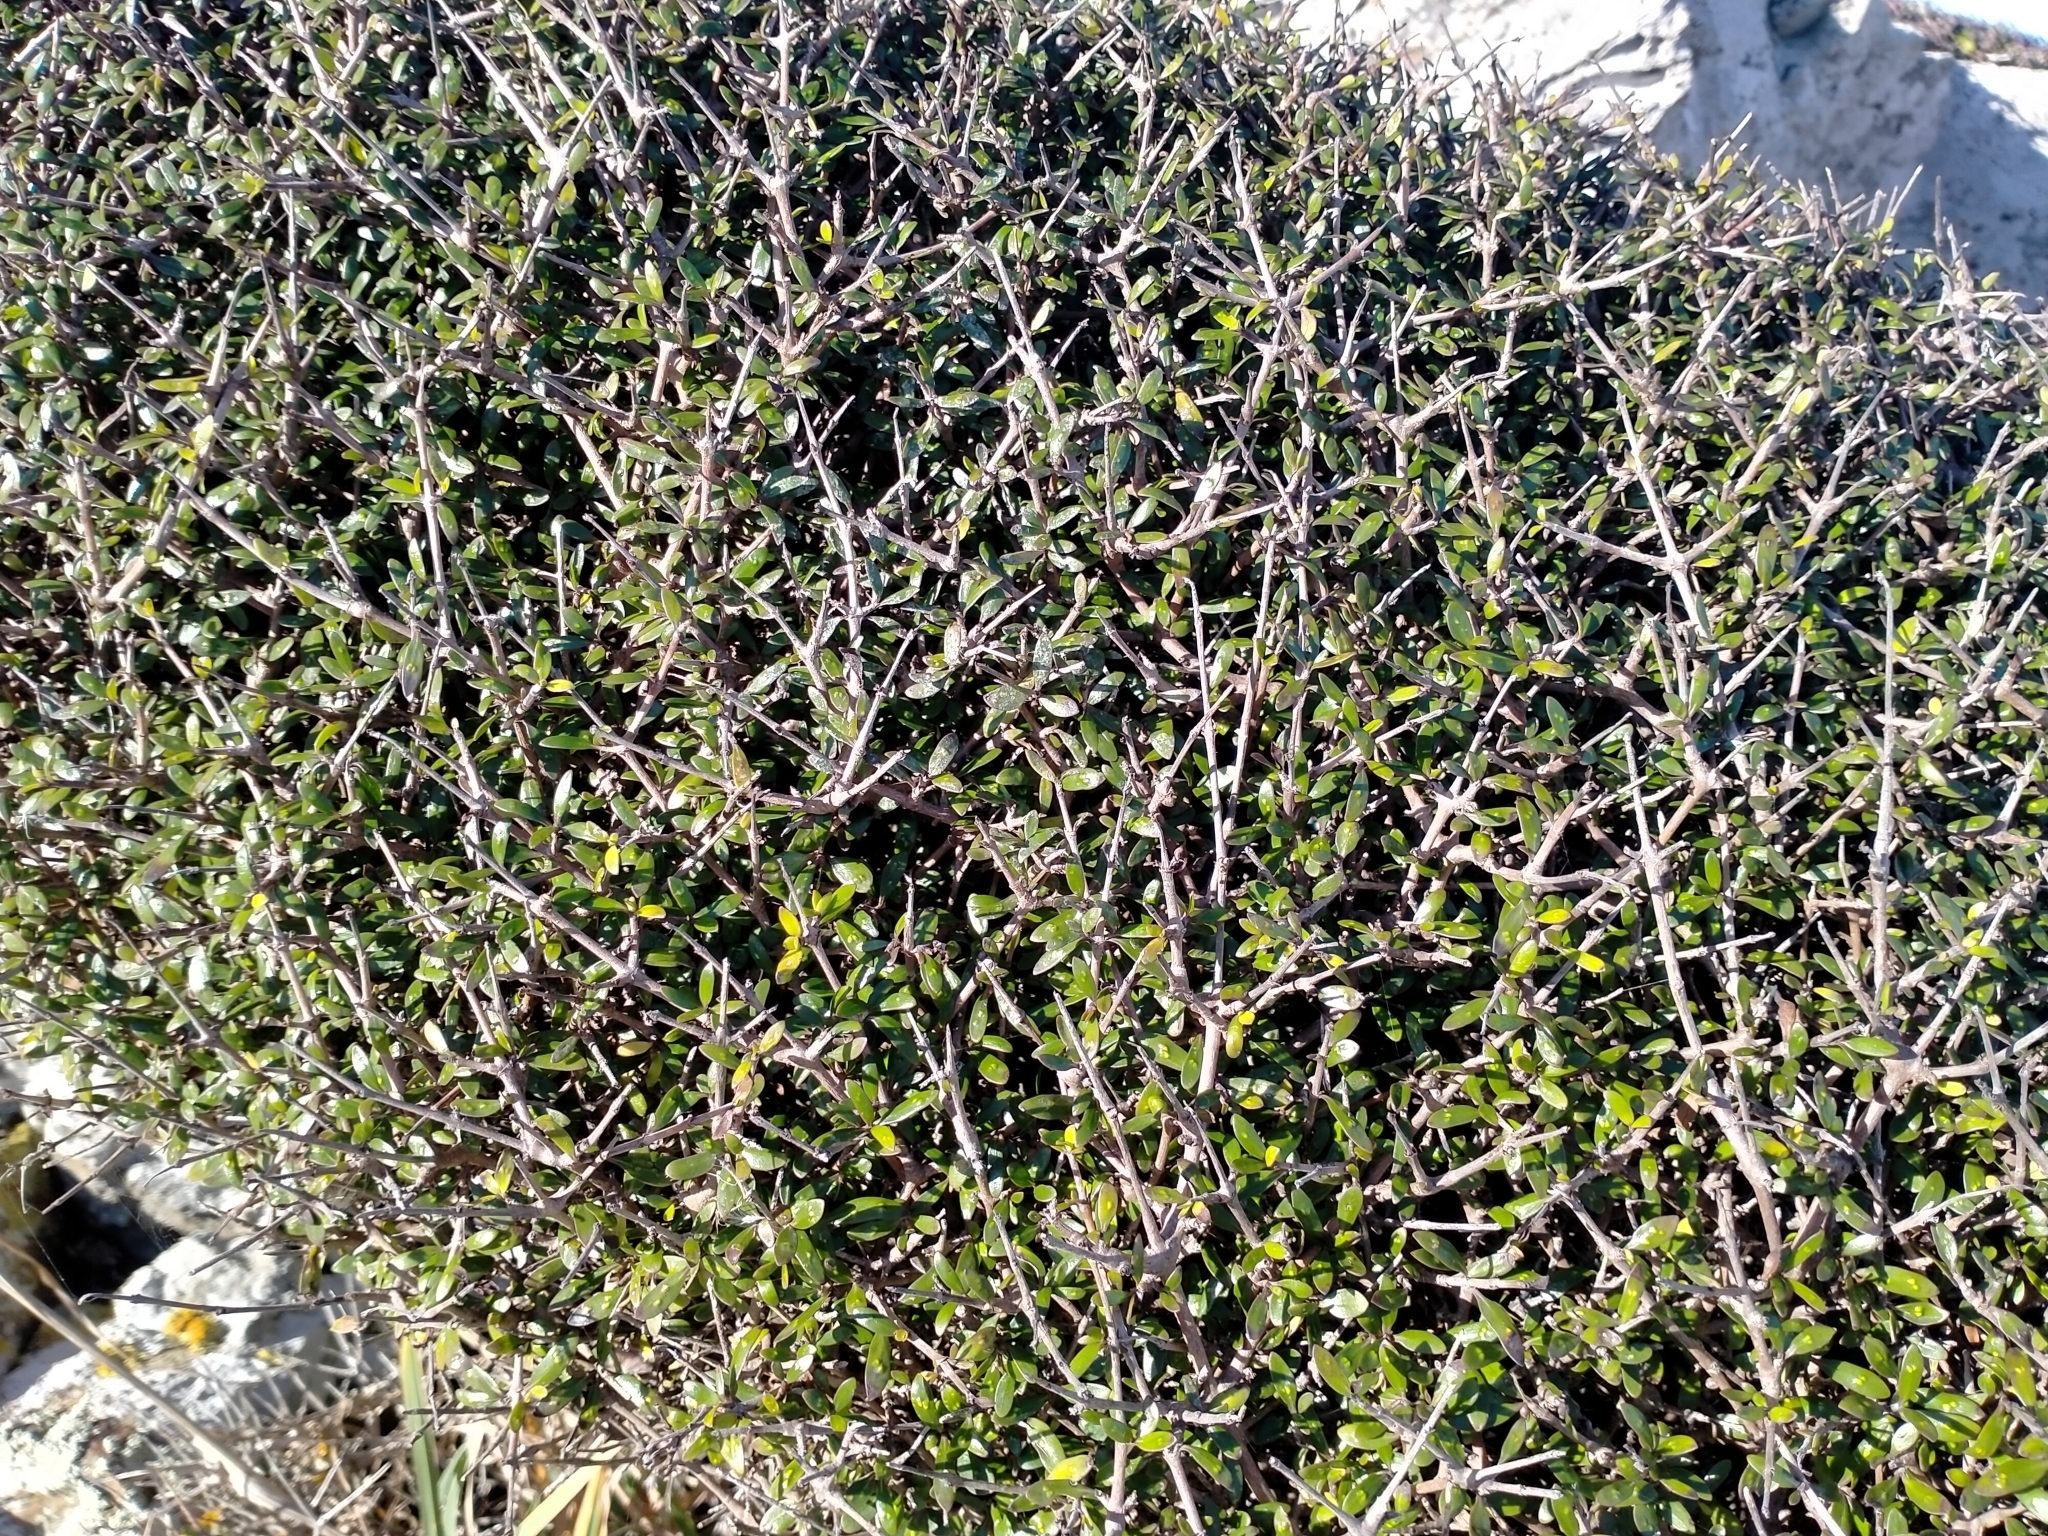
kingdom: Plantae
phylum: Tracheophyta
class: Magnoliopsida
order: Gentianales
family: Rubiaceae
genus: Coprosma
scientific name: Coprosma propinqua
